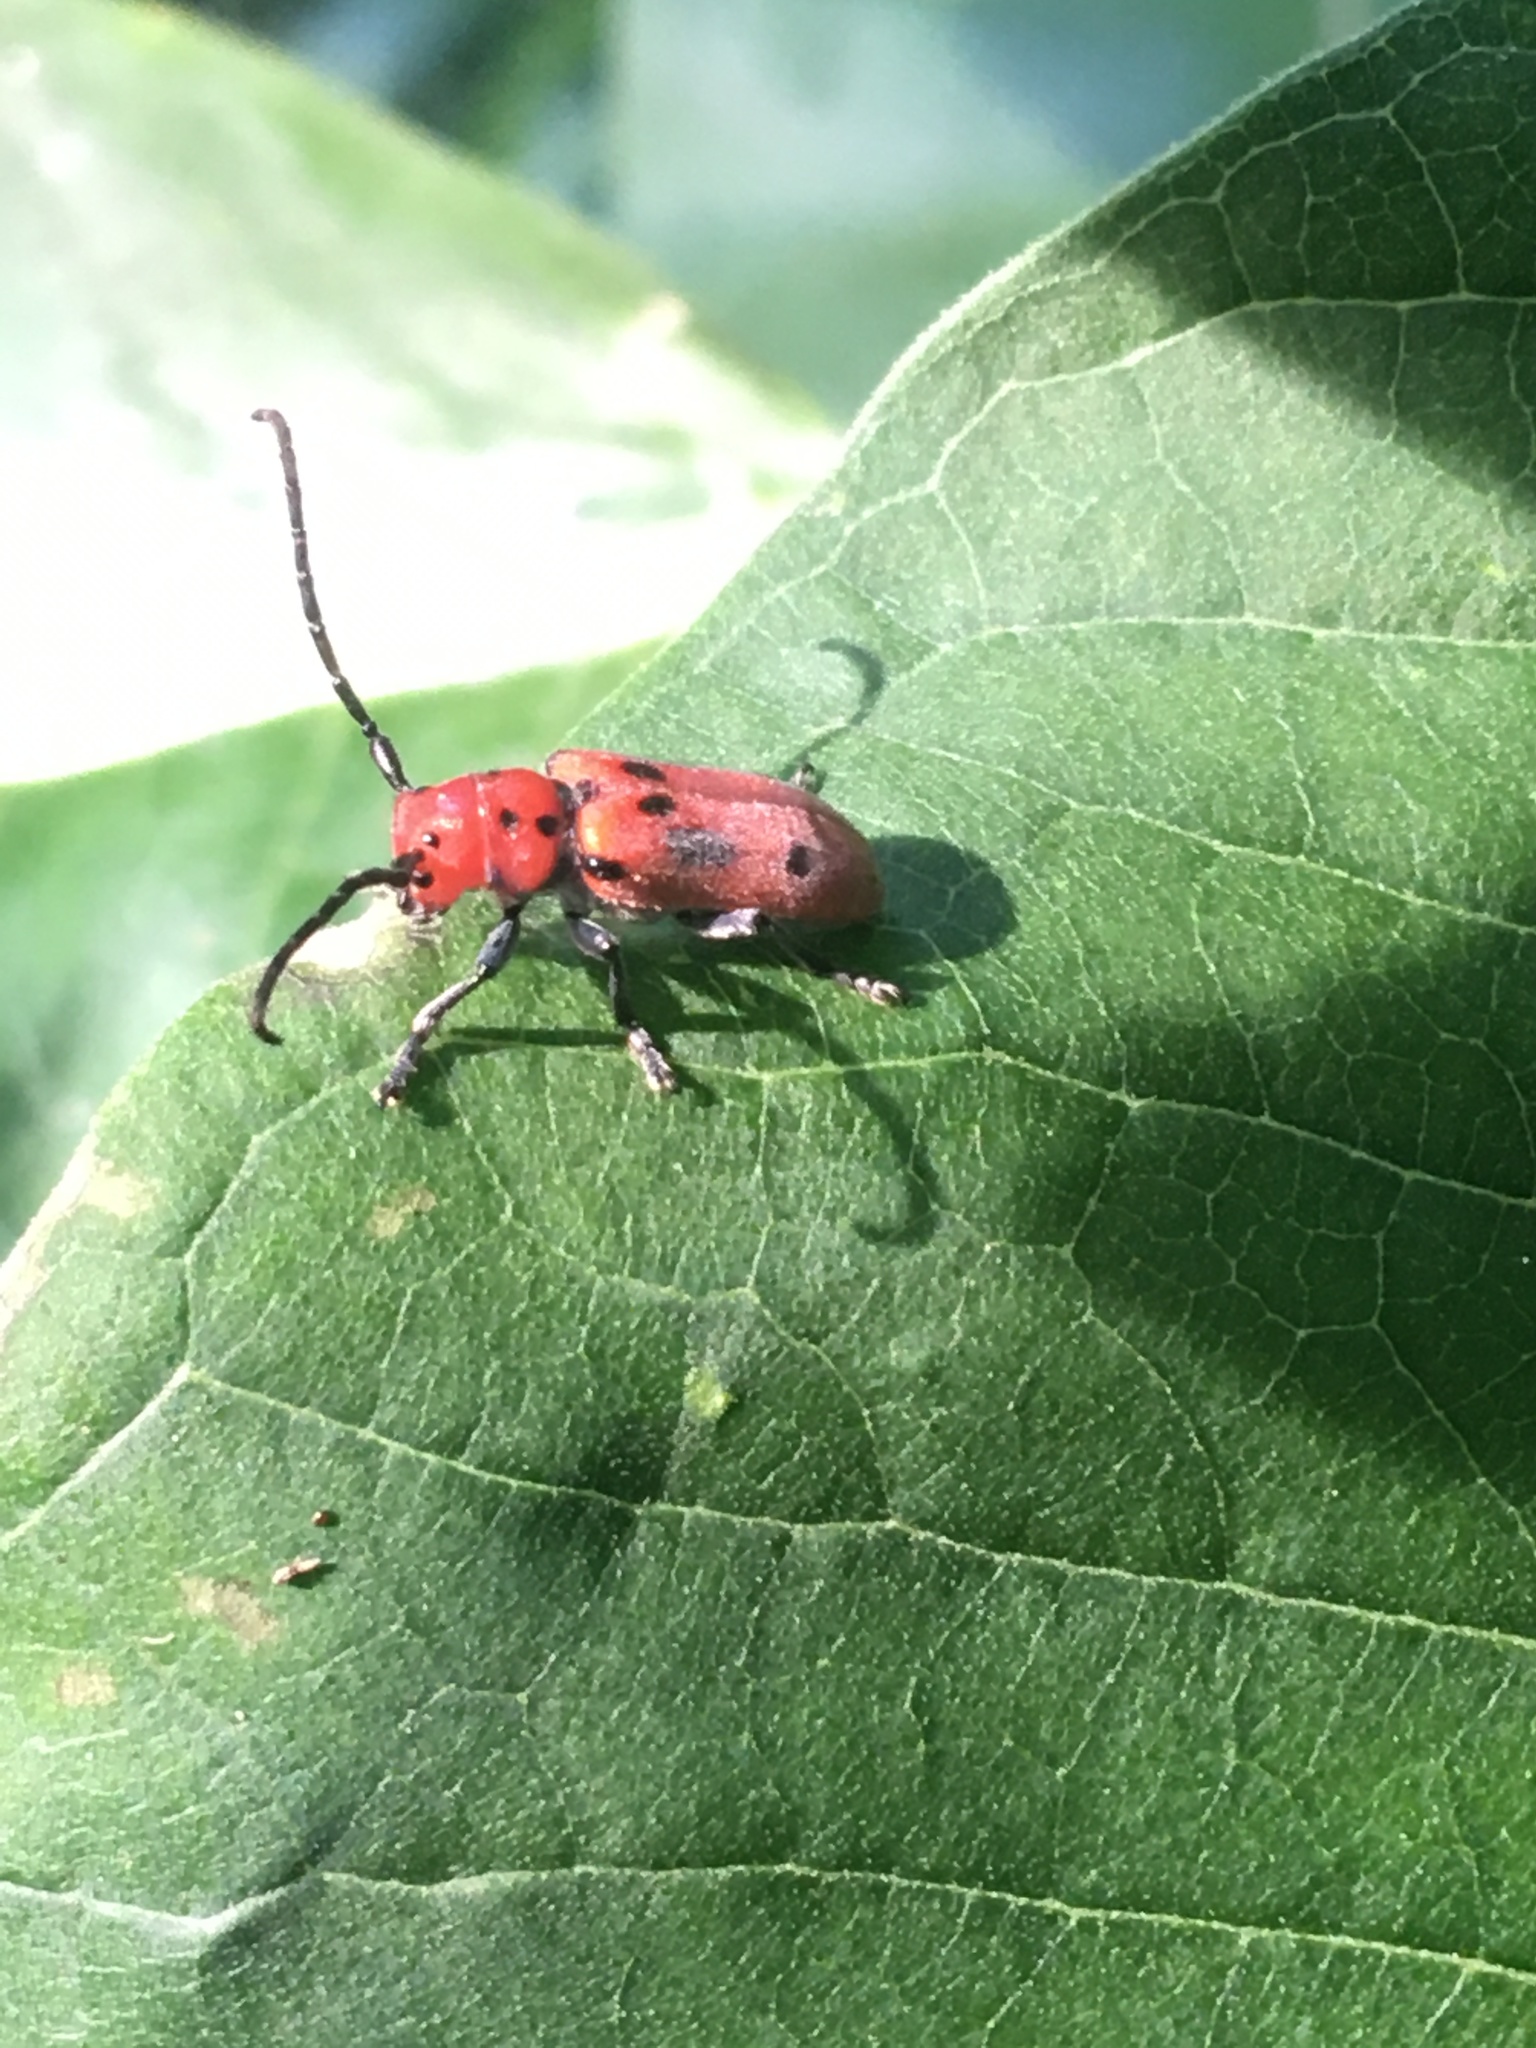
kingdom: Animalia
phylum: Arthropoda
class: Insecta
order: Coleoptera
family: Cerambycidae
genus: Tetraopes
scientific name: Tetraopes tetrophthalmus
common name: Red milkweed beetle
